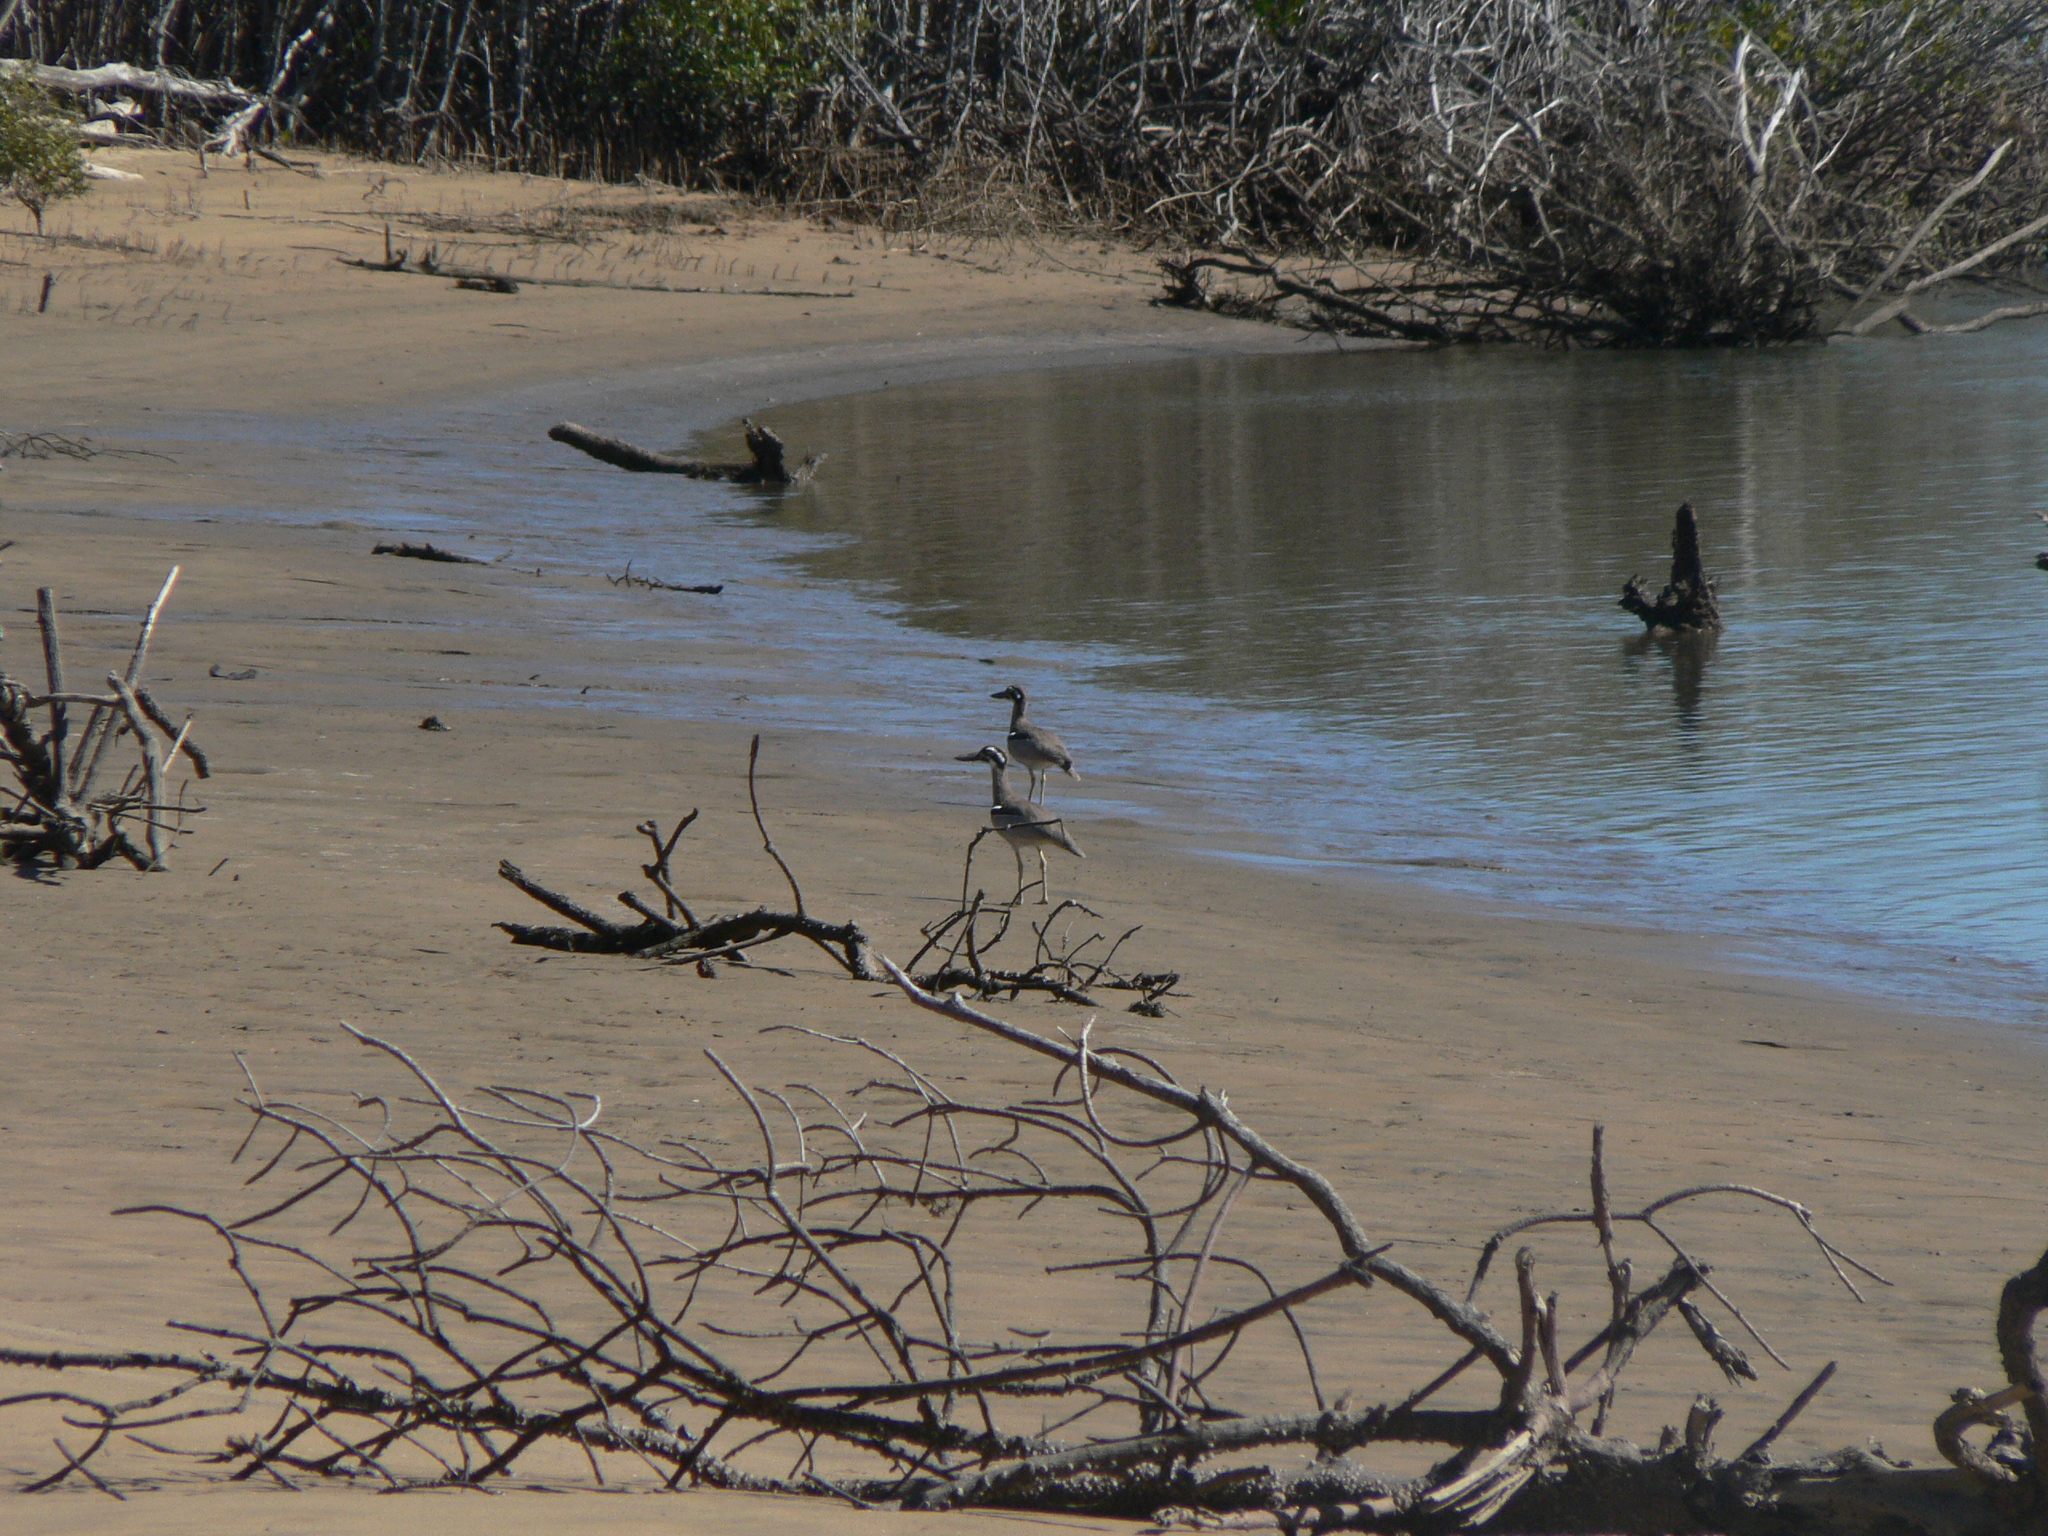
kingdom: Animalia
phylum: Chordata
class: Aves
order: Charadriiformes
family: Burhinidae
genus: Esacus
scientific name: Esacus magnirostris
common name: Beach stone-curlew
